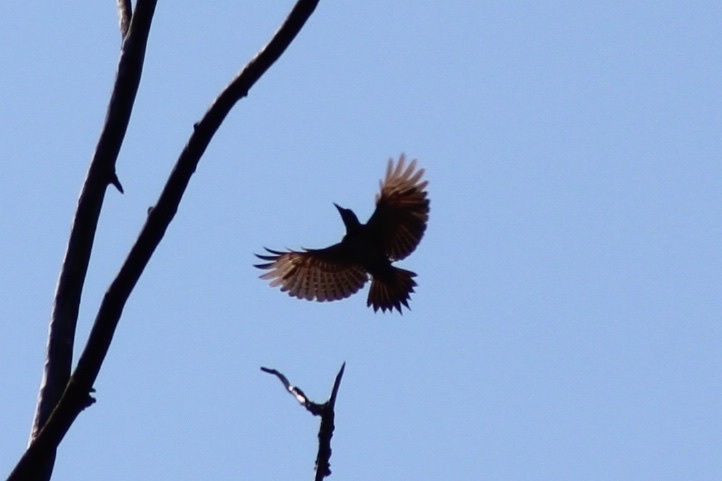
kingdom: Animalia
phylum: Chordata
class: Aves
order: Piciformes
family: Picidae
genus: Colaptes
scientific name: Colaptes auratus
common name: Northern flicker
